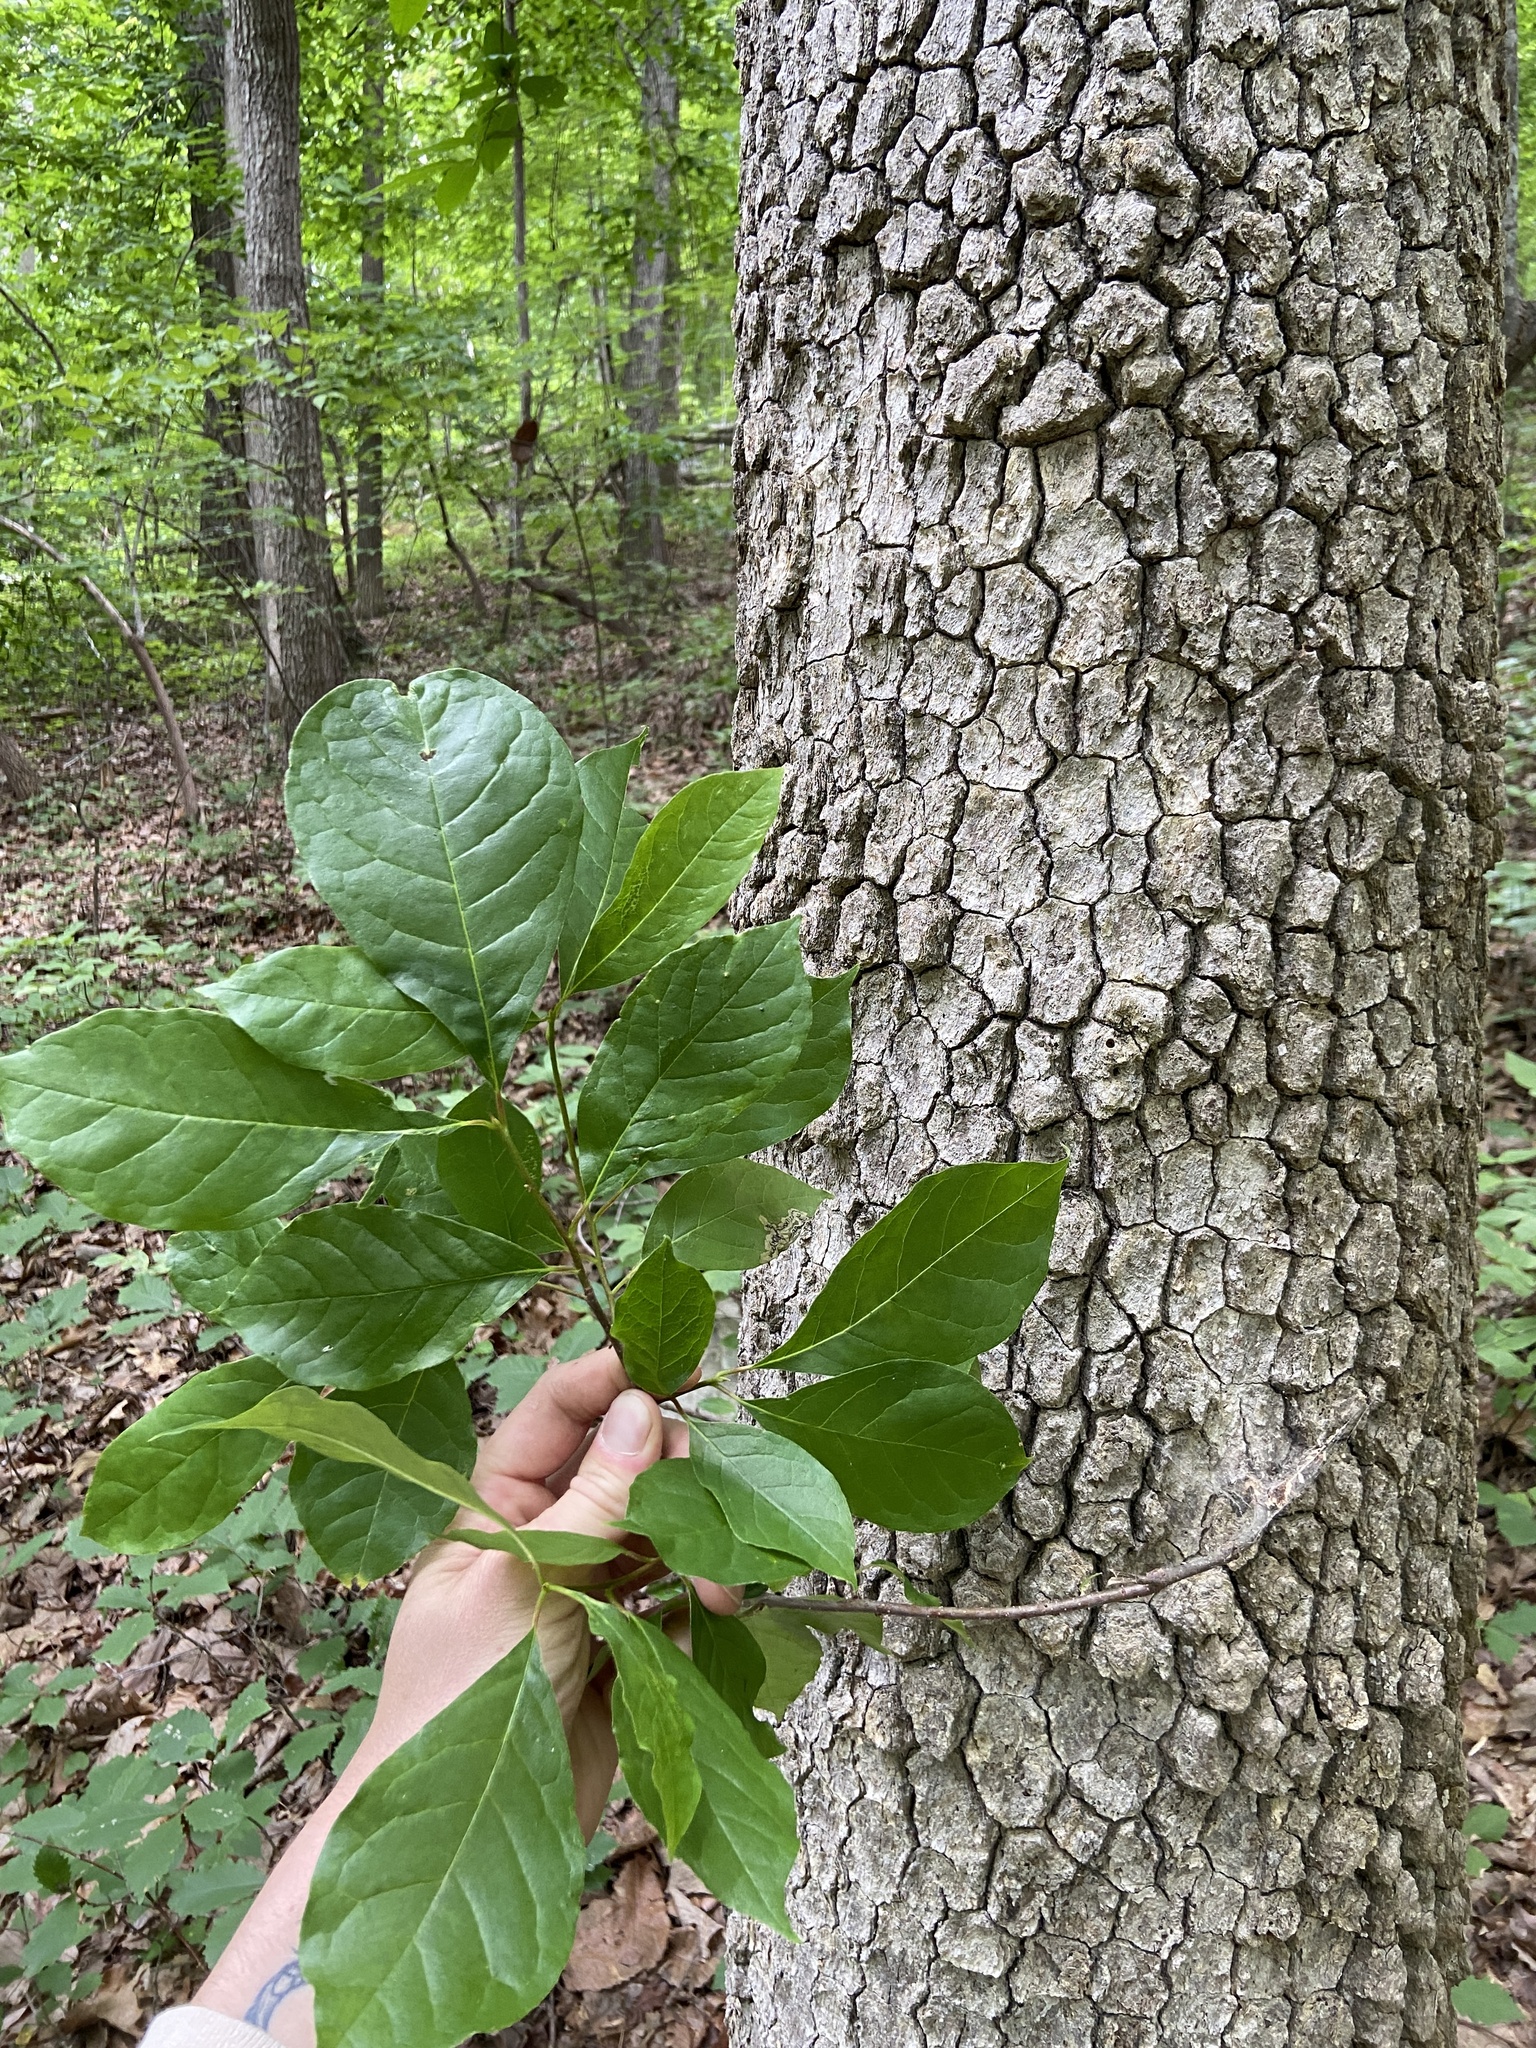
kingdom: Plantae
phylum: Tracheophyta
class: Magnoliopsida
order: Cornales
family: Nyssaceae
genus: Nyssa
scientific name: Nyssa sylvatica
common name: Black tupelo
